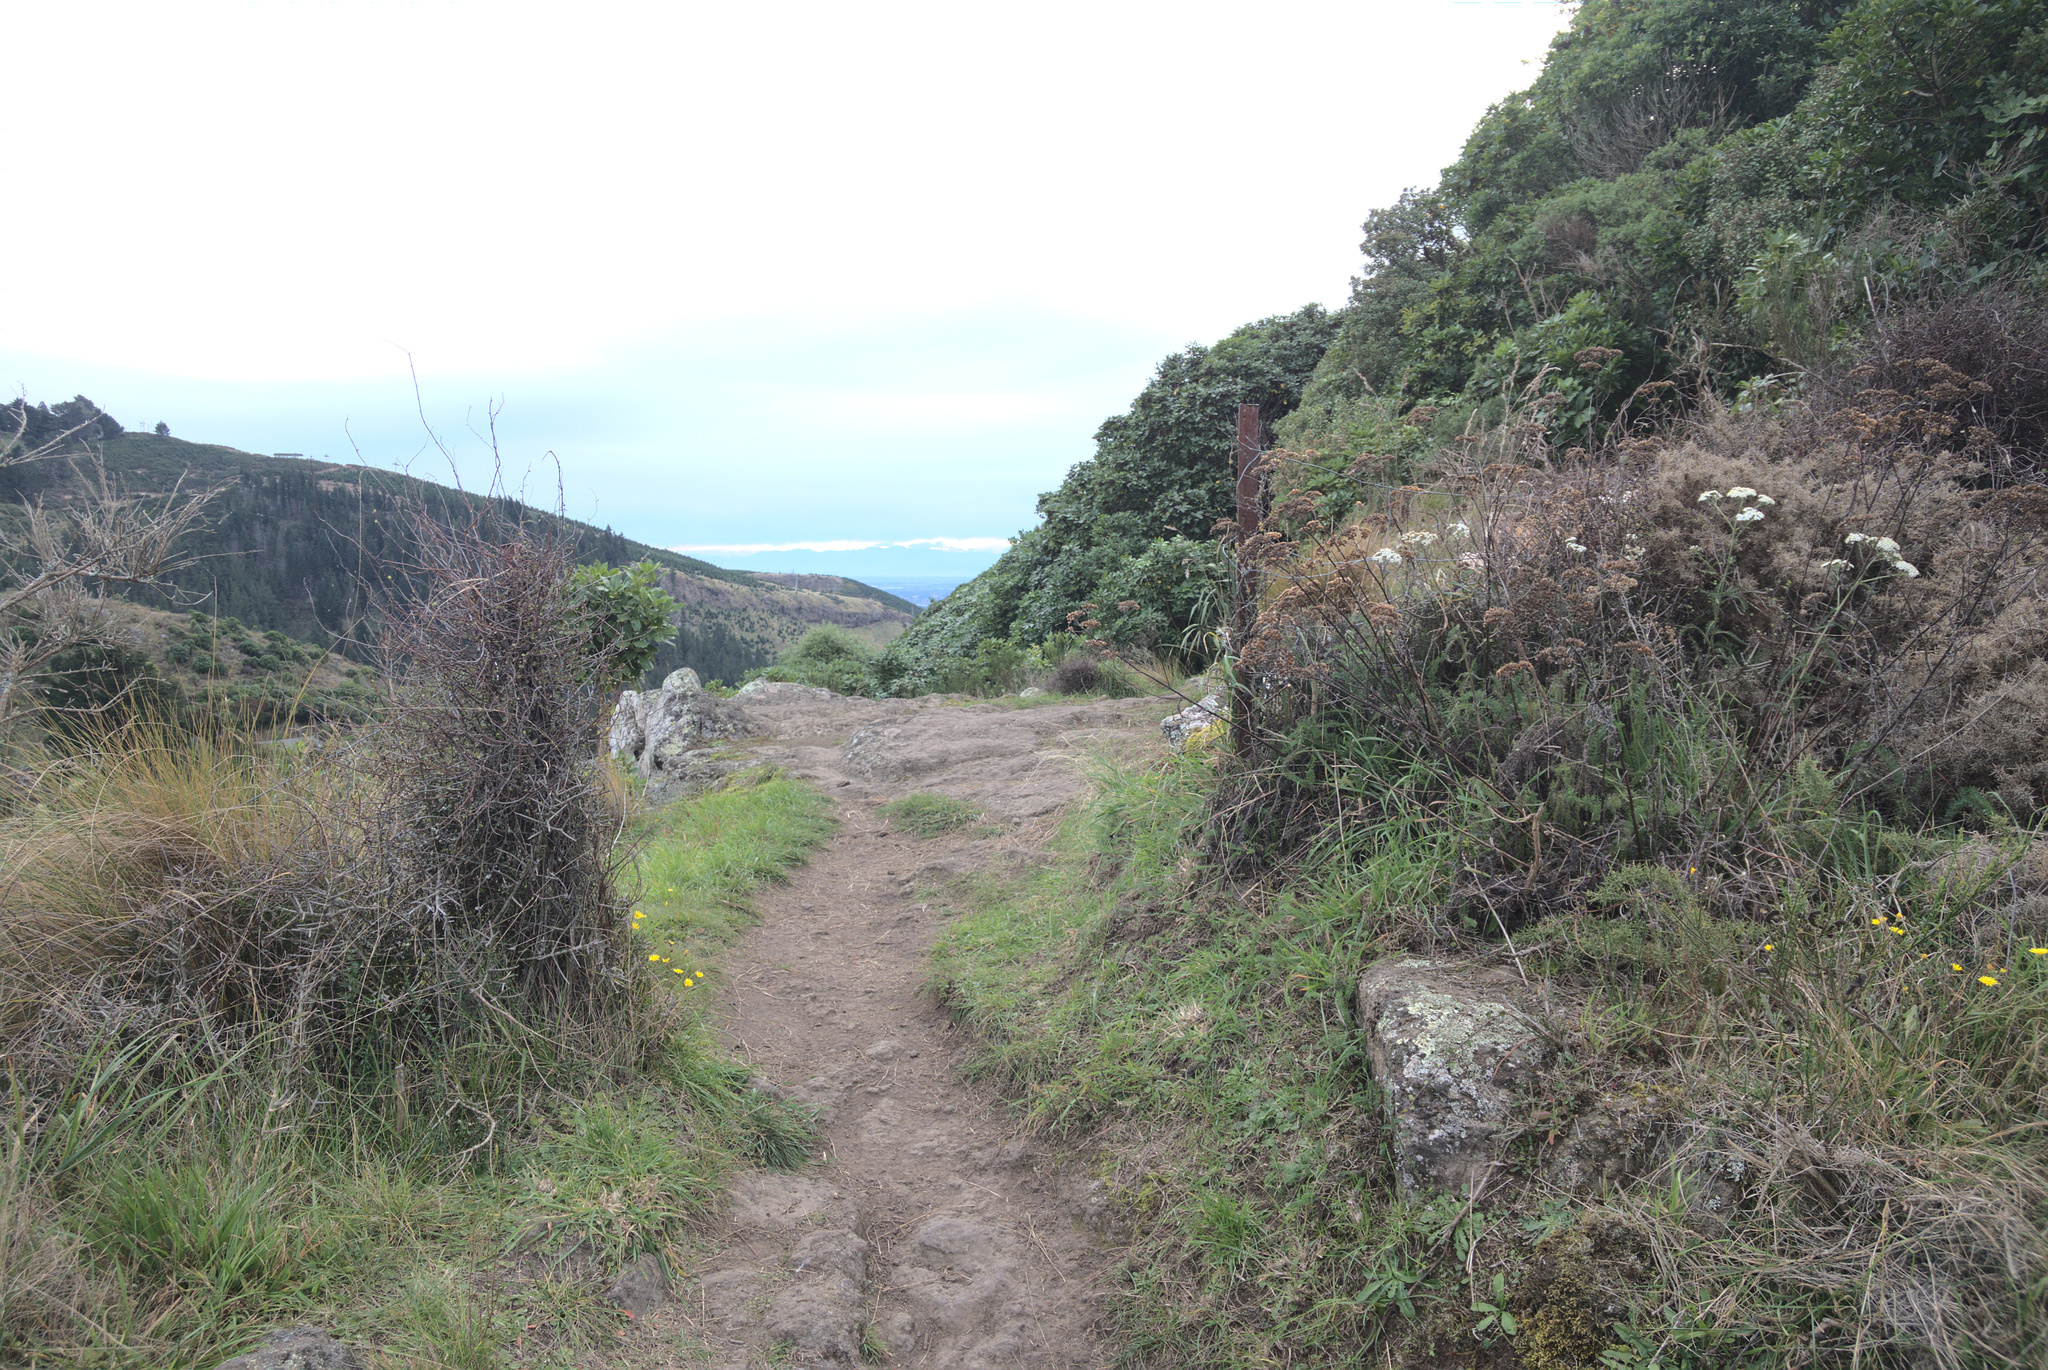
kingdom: Plantae
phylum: Tracheophyta
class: Magnoliopsida
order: Caryophyllales
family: Polygonaceae
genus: Muehlenbeckia
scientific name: Muehlenbeckia complexa
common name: Wireplant
